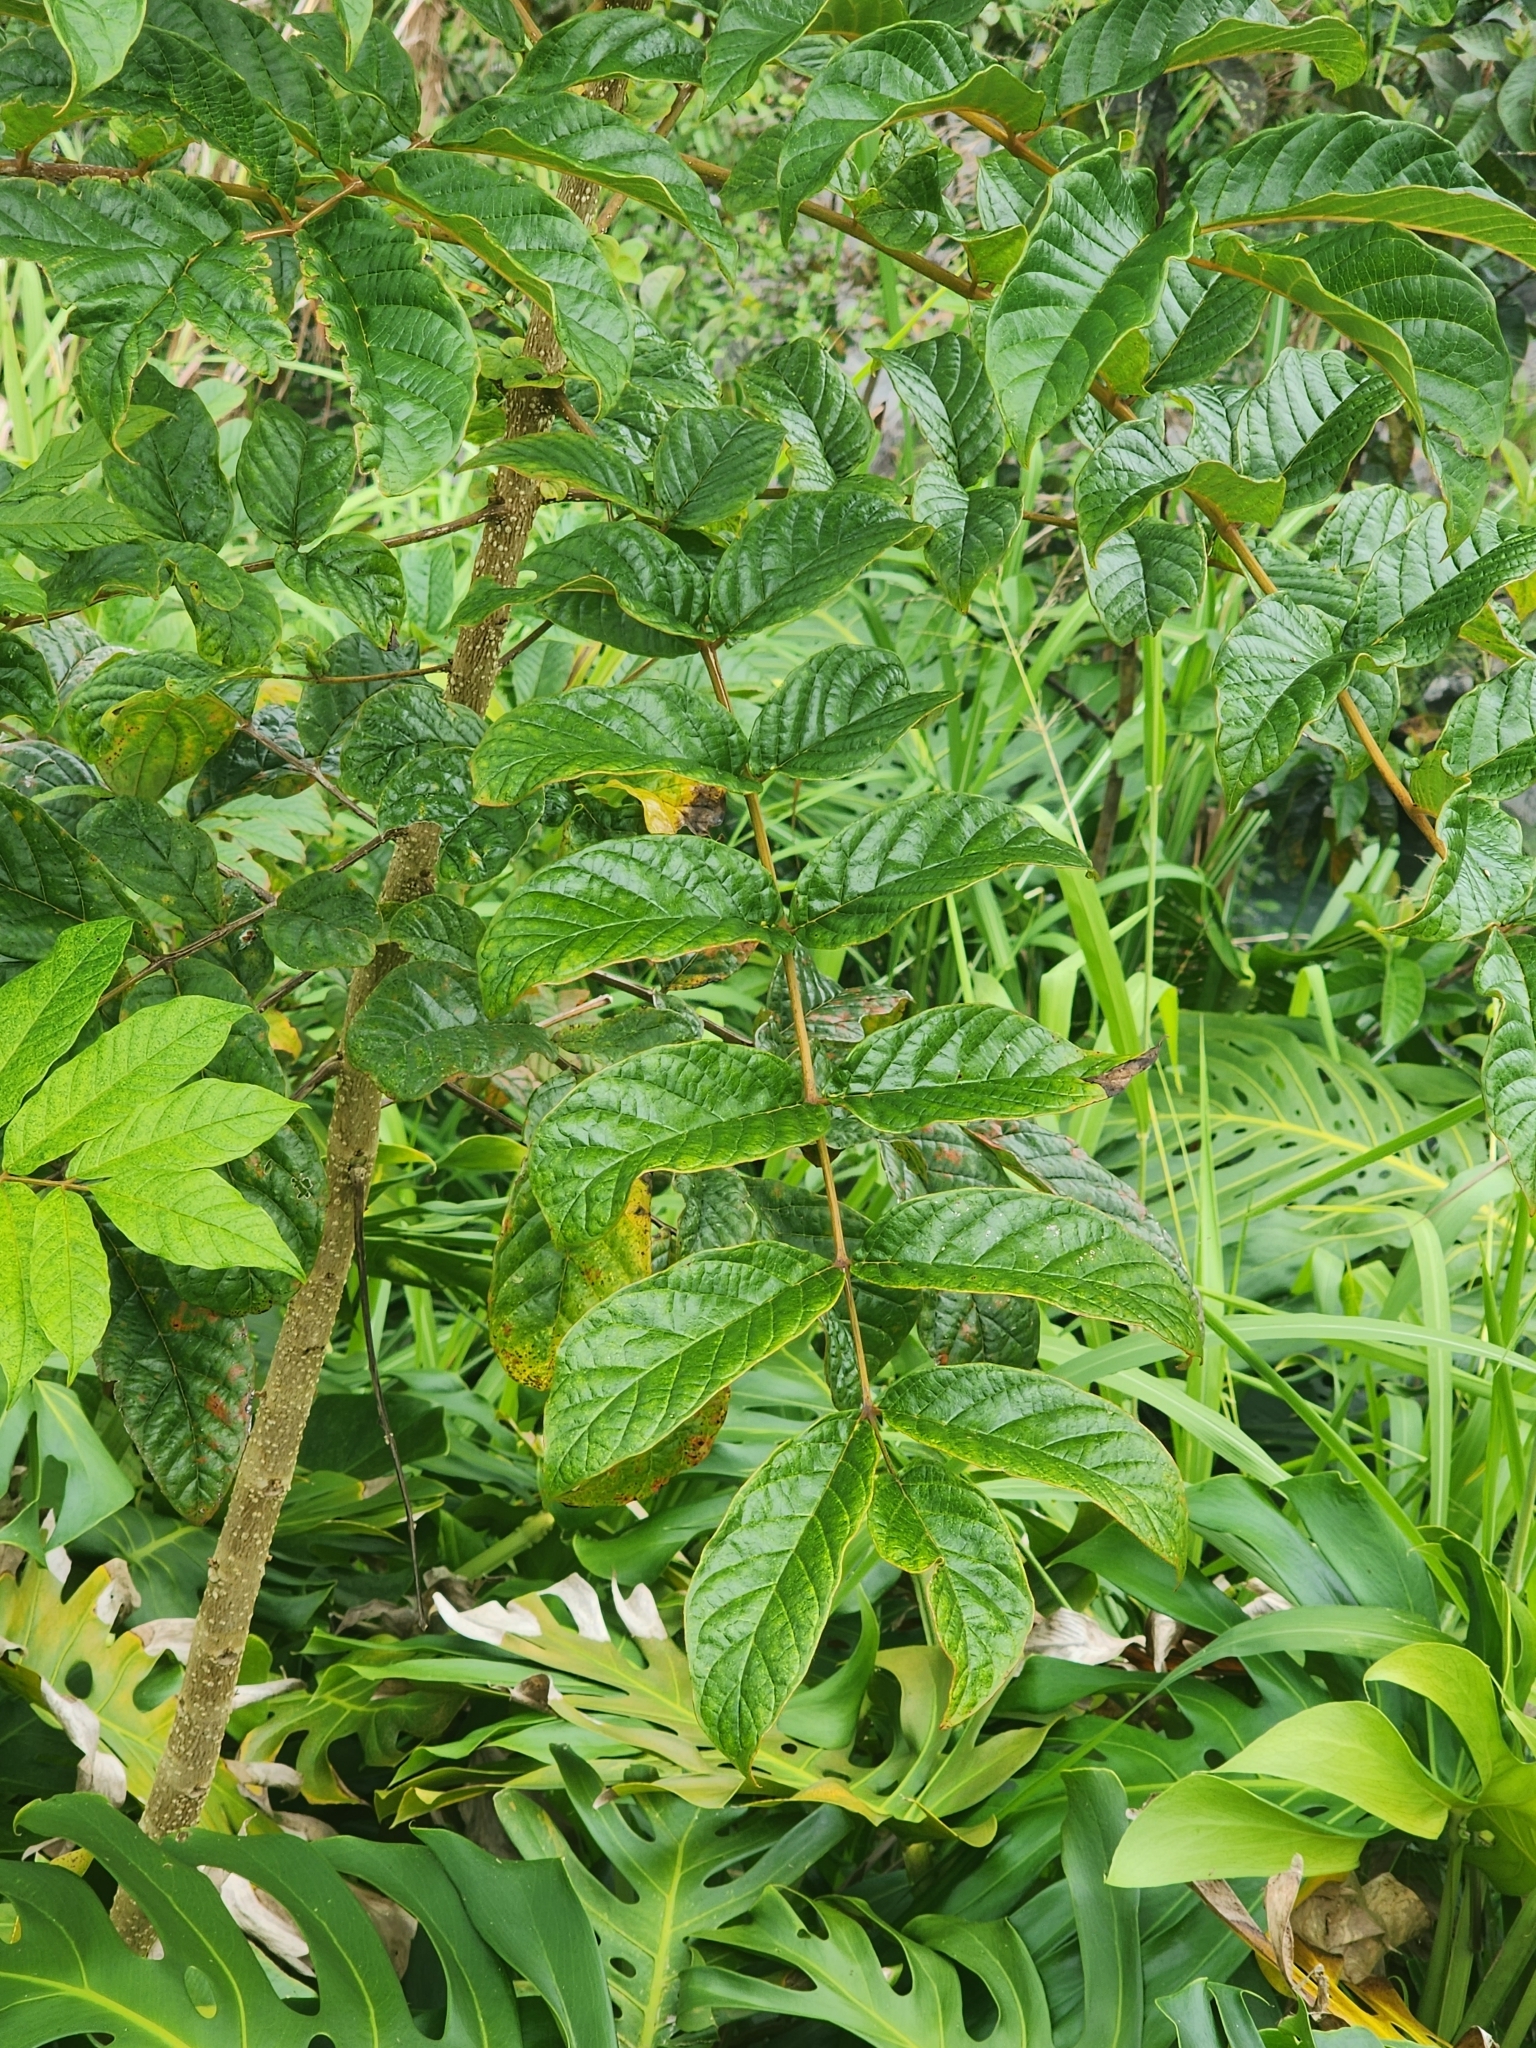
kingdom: Plantae
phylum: Tracheophyta
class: Magnoliopsida
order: Lamiales
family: Bignoniaceae
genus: Spathodea
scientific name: Spathodea campanulata
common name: African tuliptree
